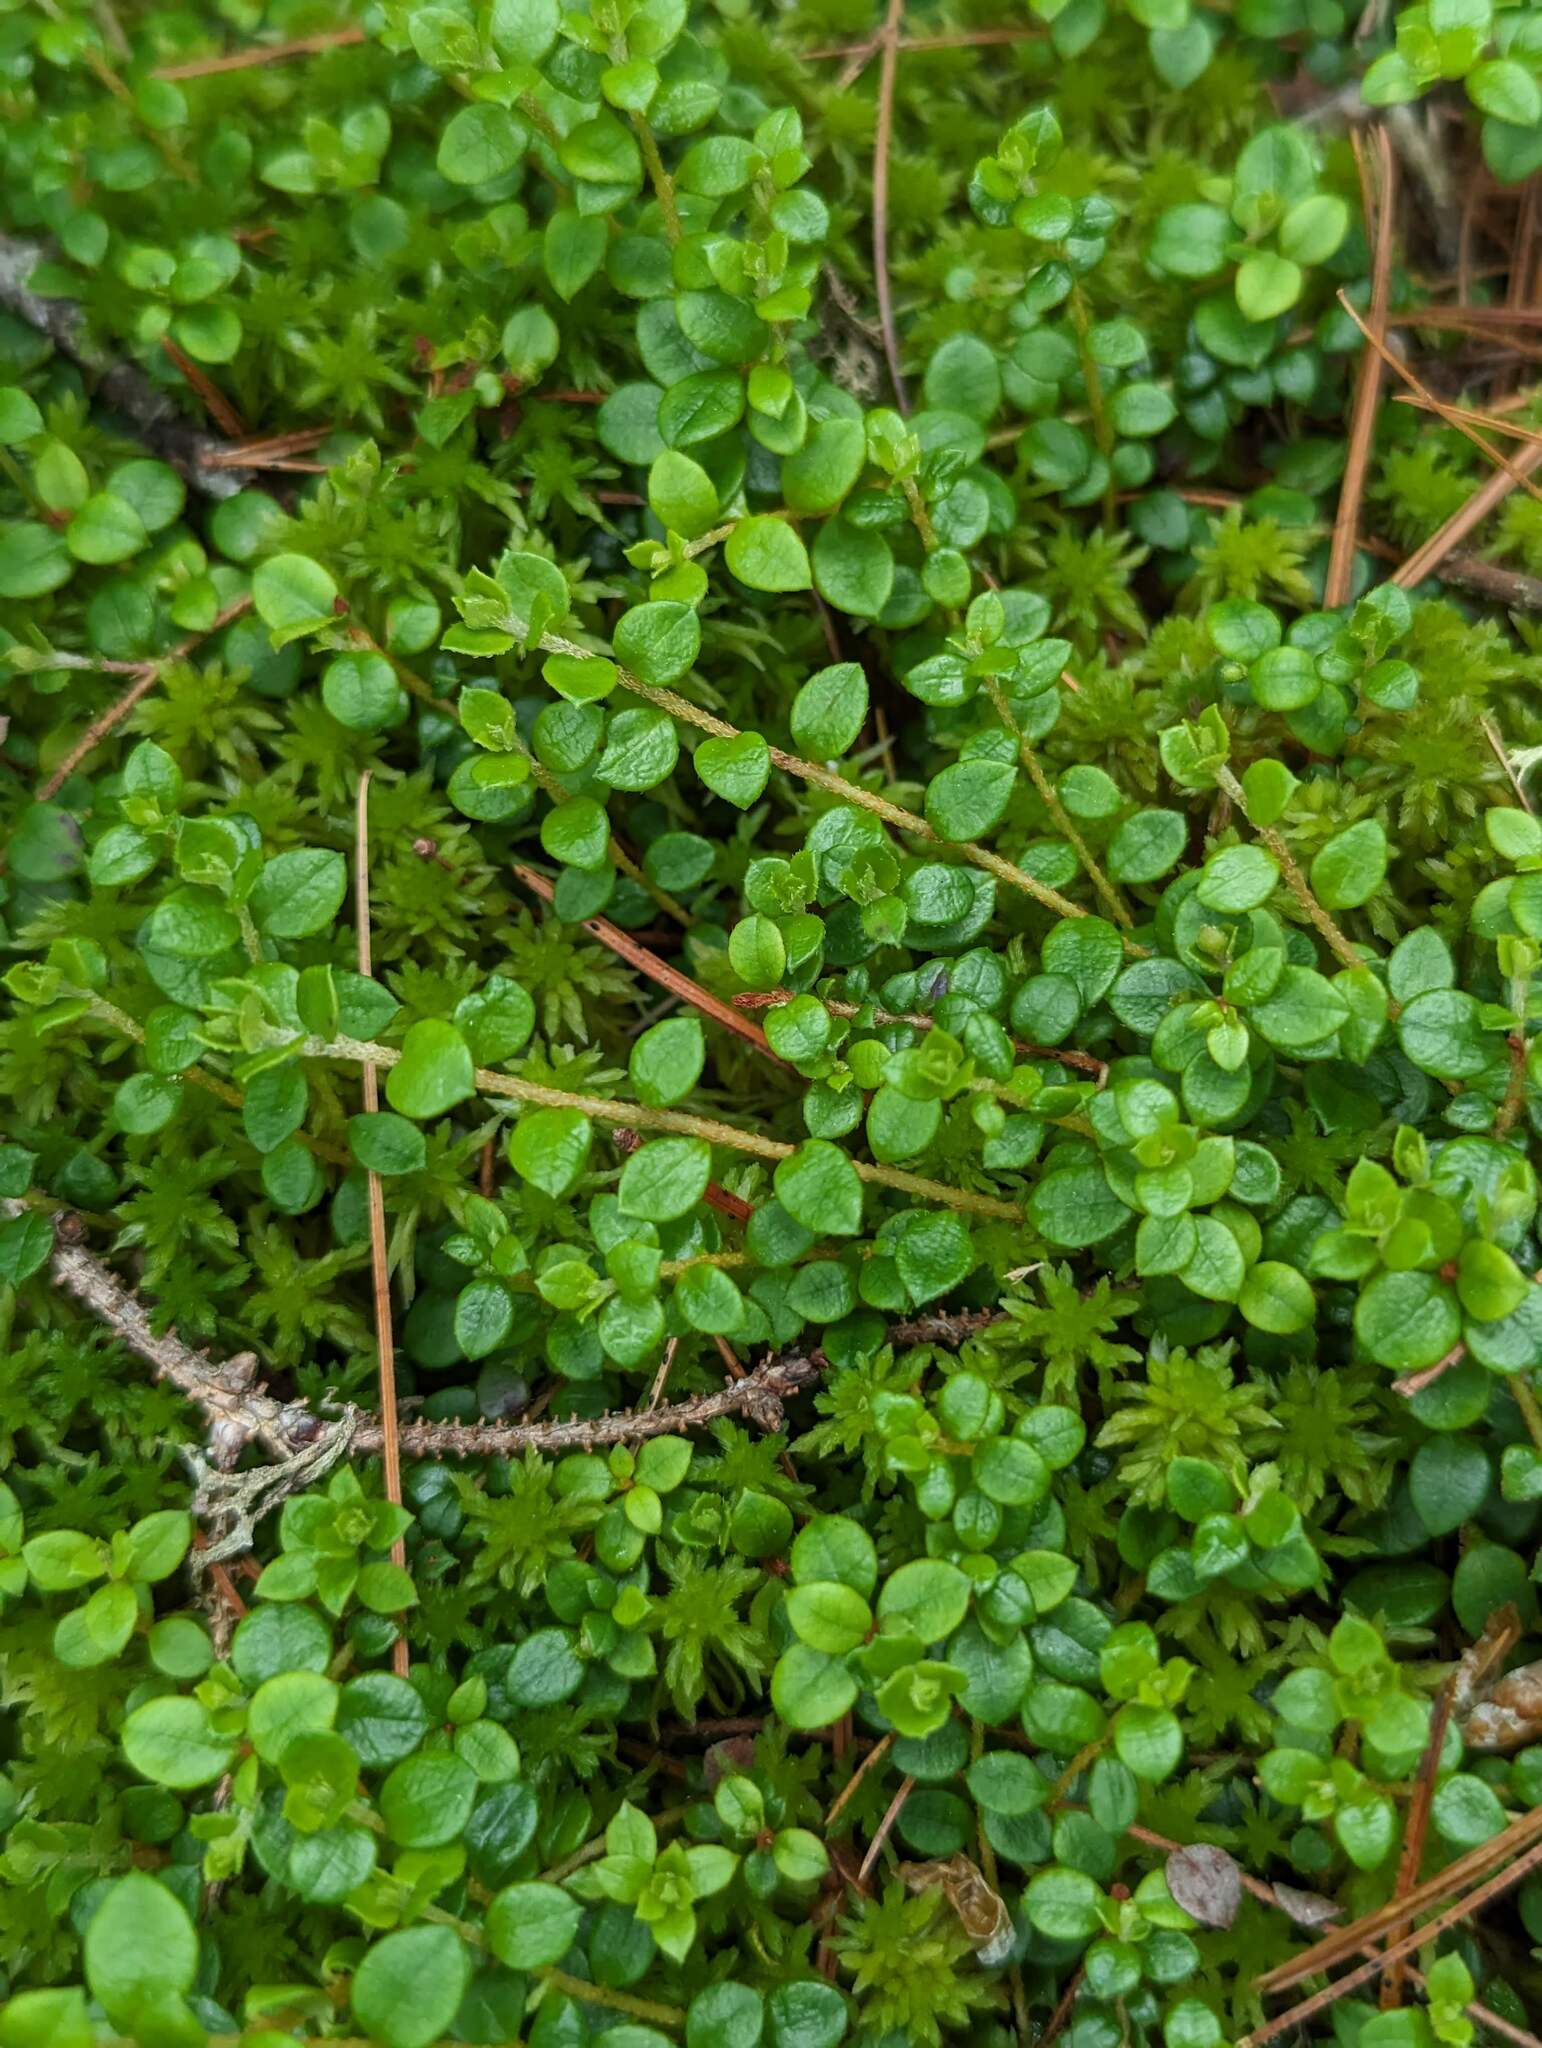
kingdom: Plantae
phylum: Tracheophyta
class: Magnoliopsida
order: Ericales
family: Ericaceae
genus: Gaultheria
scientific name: Gaultheria hispidula
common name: Cancer wintergreen
